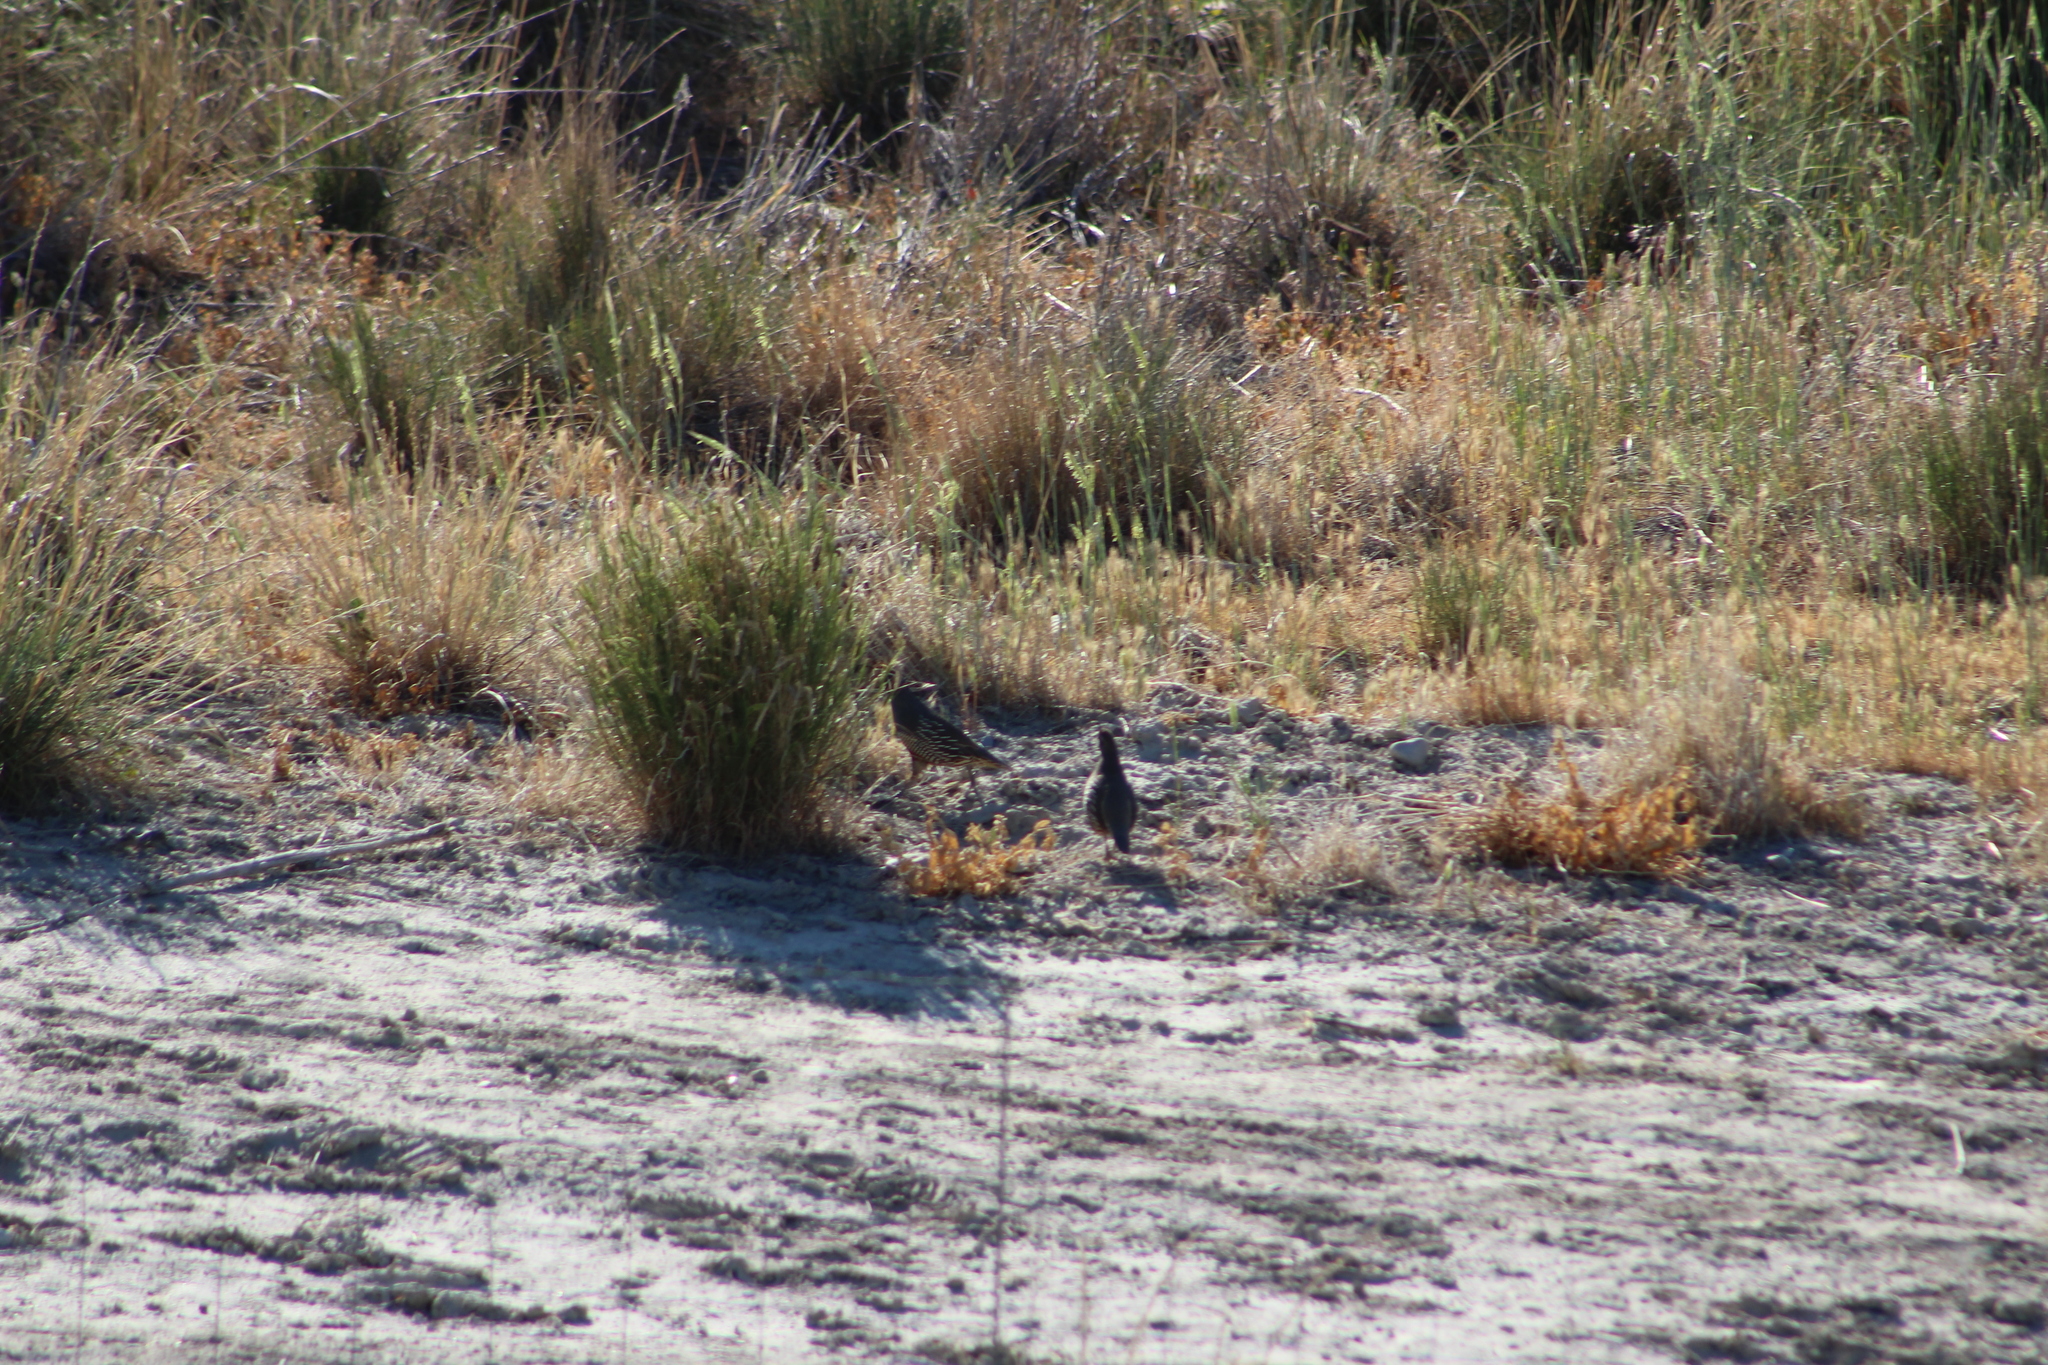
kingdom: Animalia
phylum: Chordata
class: Aves
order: Galliformes
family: Odontophoridae
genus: Callipepla
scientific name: Callipepla californica
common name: California quail
